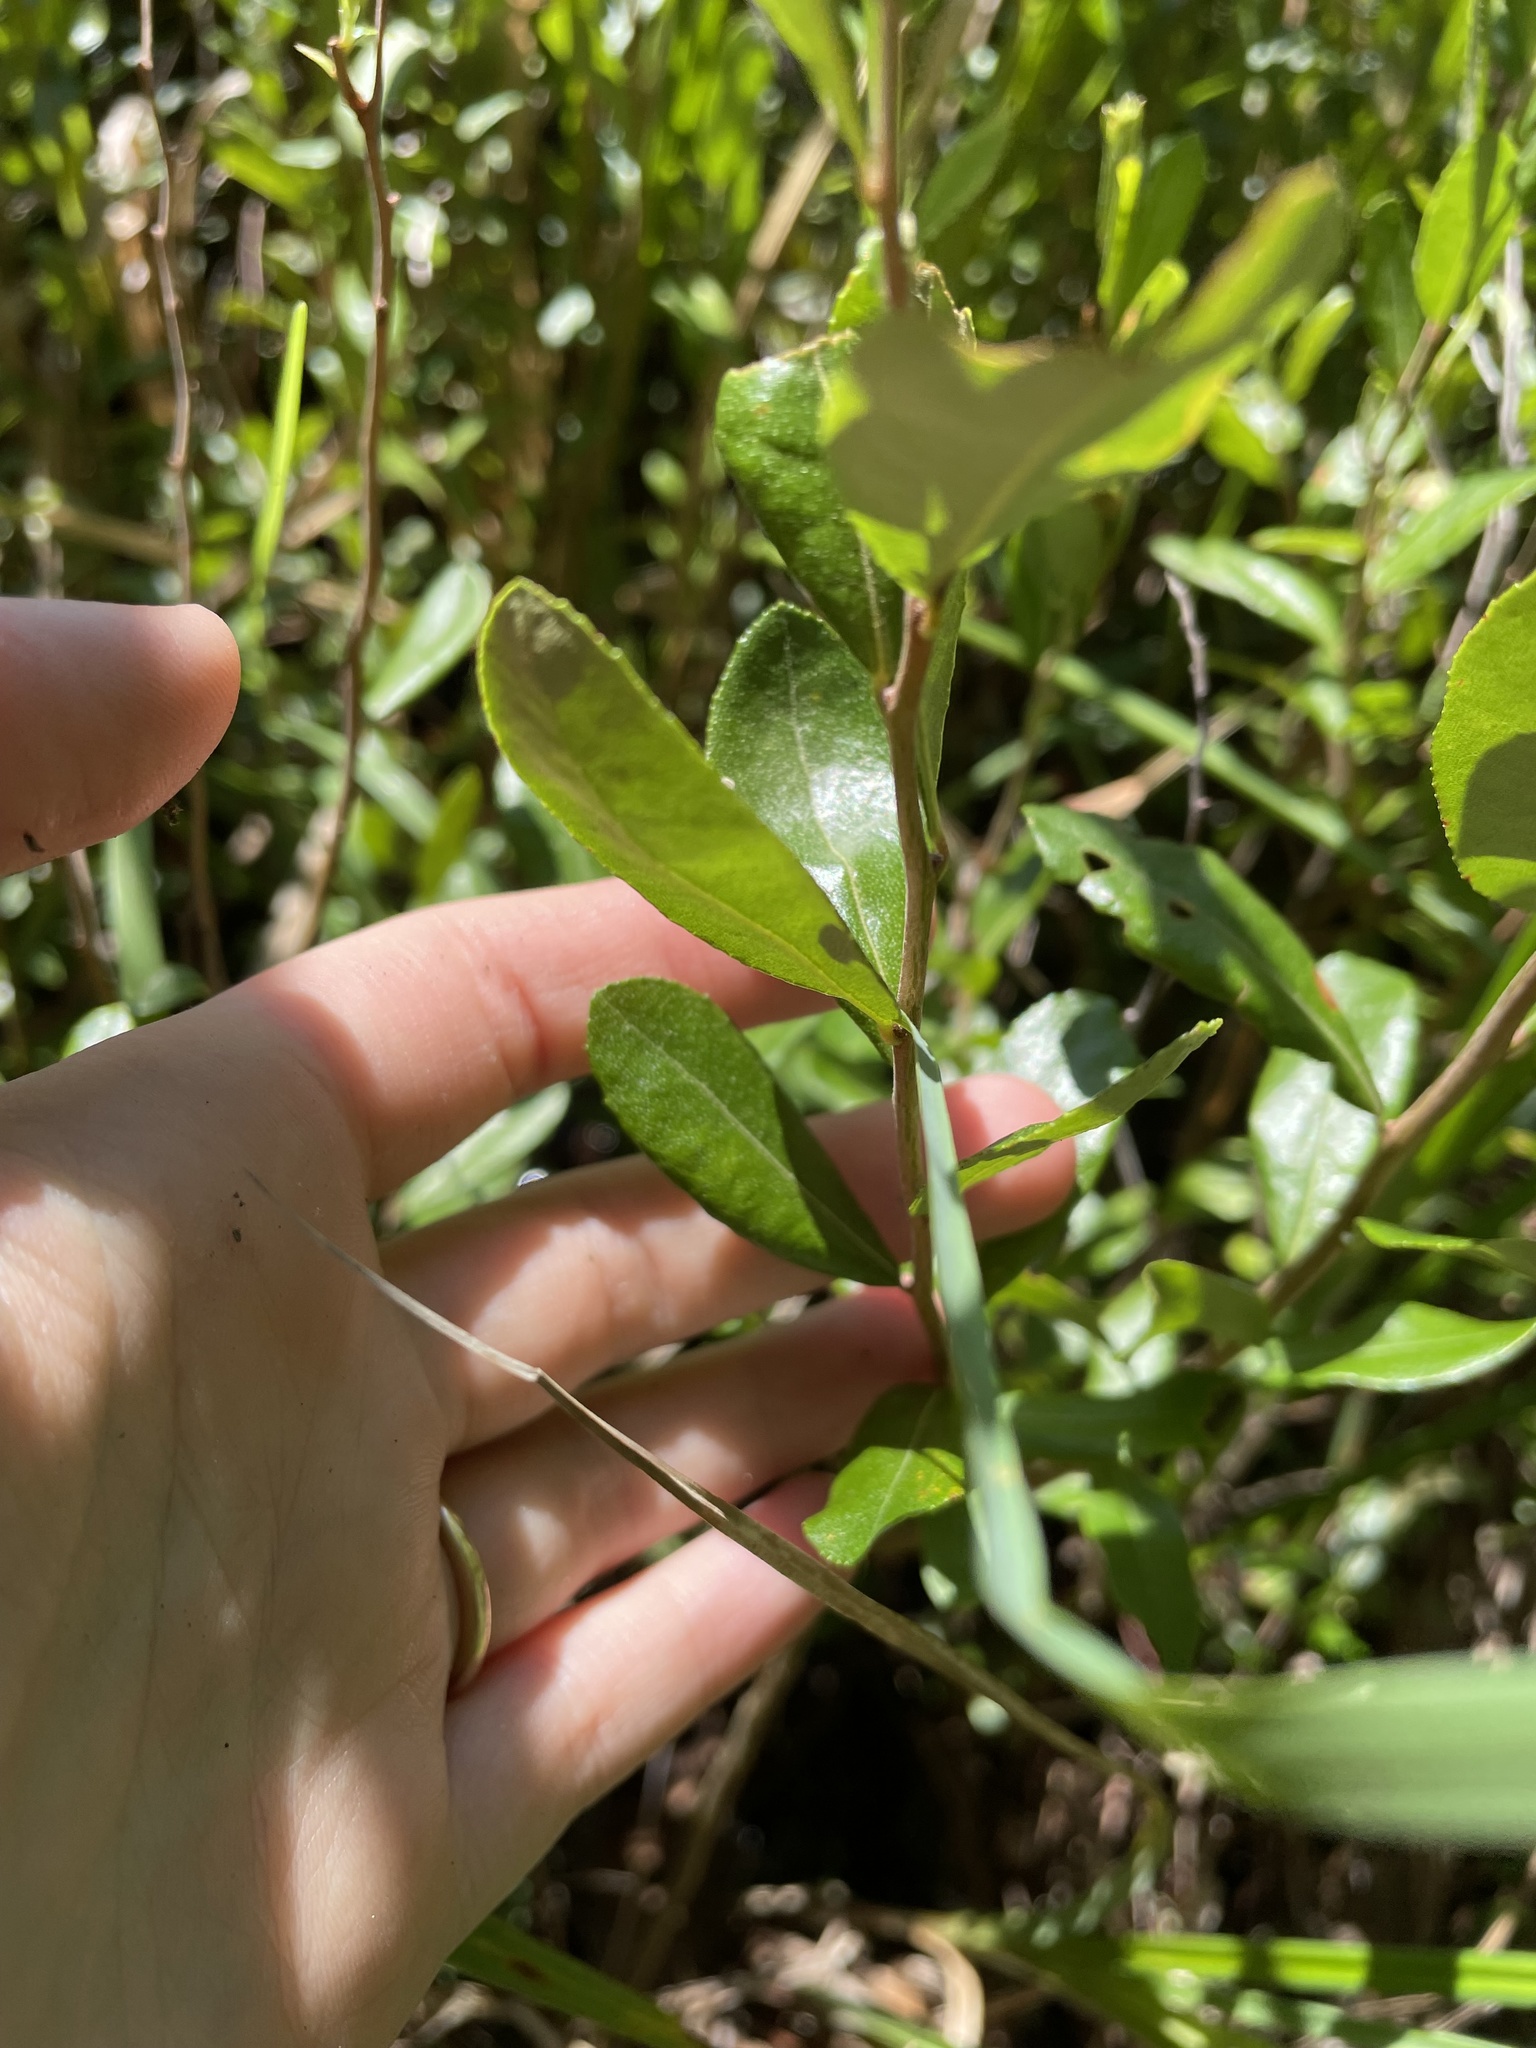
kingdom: Plantae
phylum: Tracheophyta
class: Magnoliopsida
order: Ericales
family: Ericaceae
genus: Chamaedaphne
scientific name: Chamaedaphne calyculata
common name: Leatherleaf
